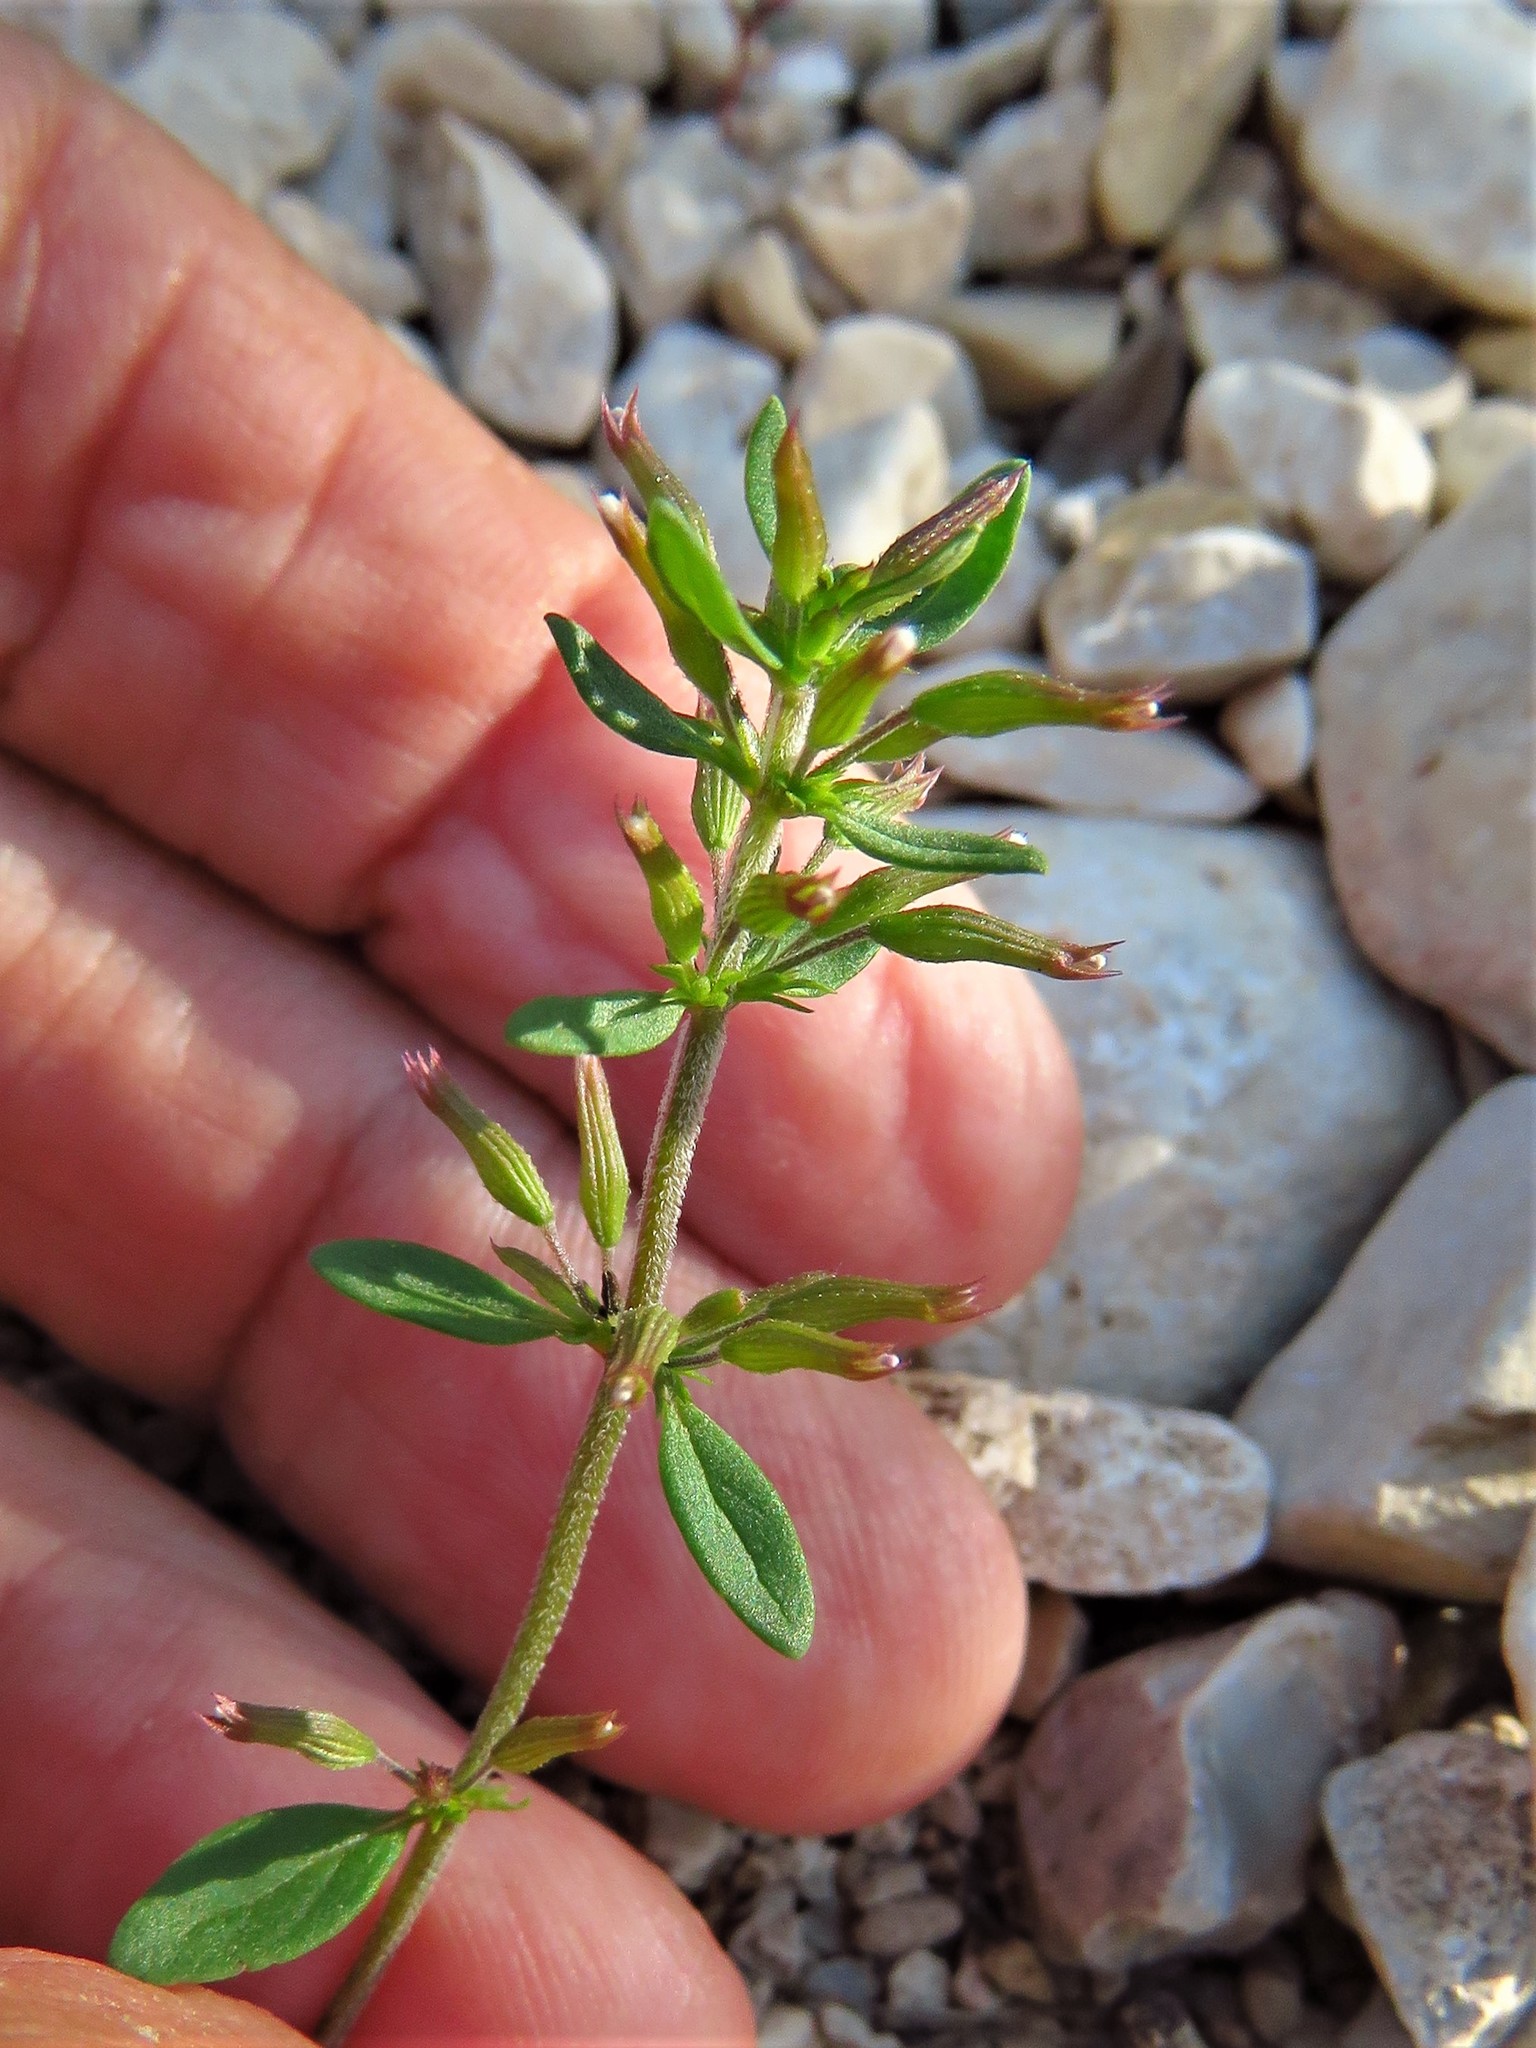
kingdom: Plantae
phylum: Tracheophyta
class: Magnoliopsida
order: Lamiales
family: Lamiaceae
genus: Hedeoma
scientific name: Hedeoma acinoides
